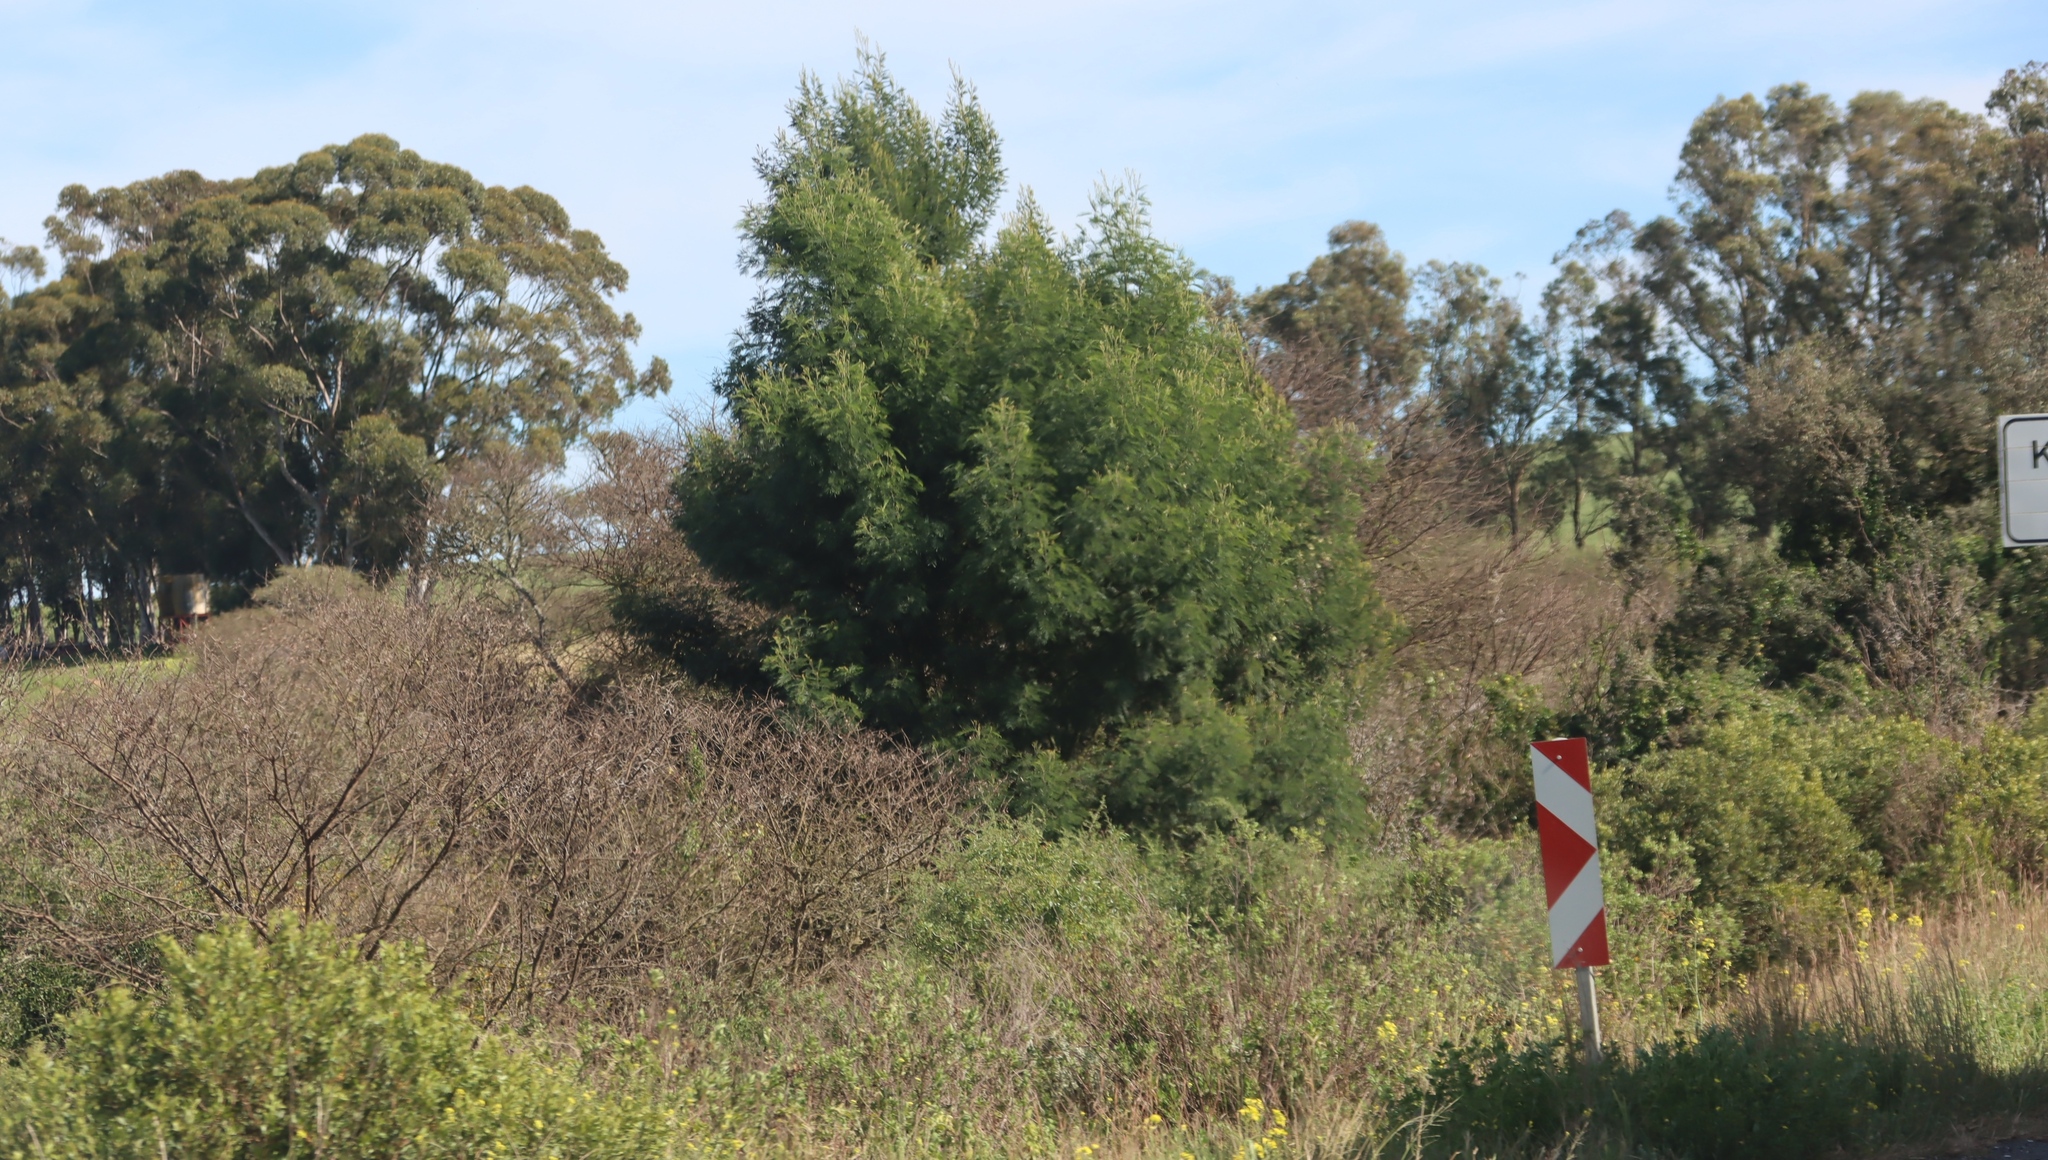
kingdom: Plantae
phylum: Tracheophyta
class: Magnoliopsida
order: Fabales
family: Fabaceae
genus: Acacia
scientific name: Acacia mearnsii
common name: Black wattle
